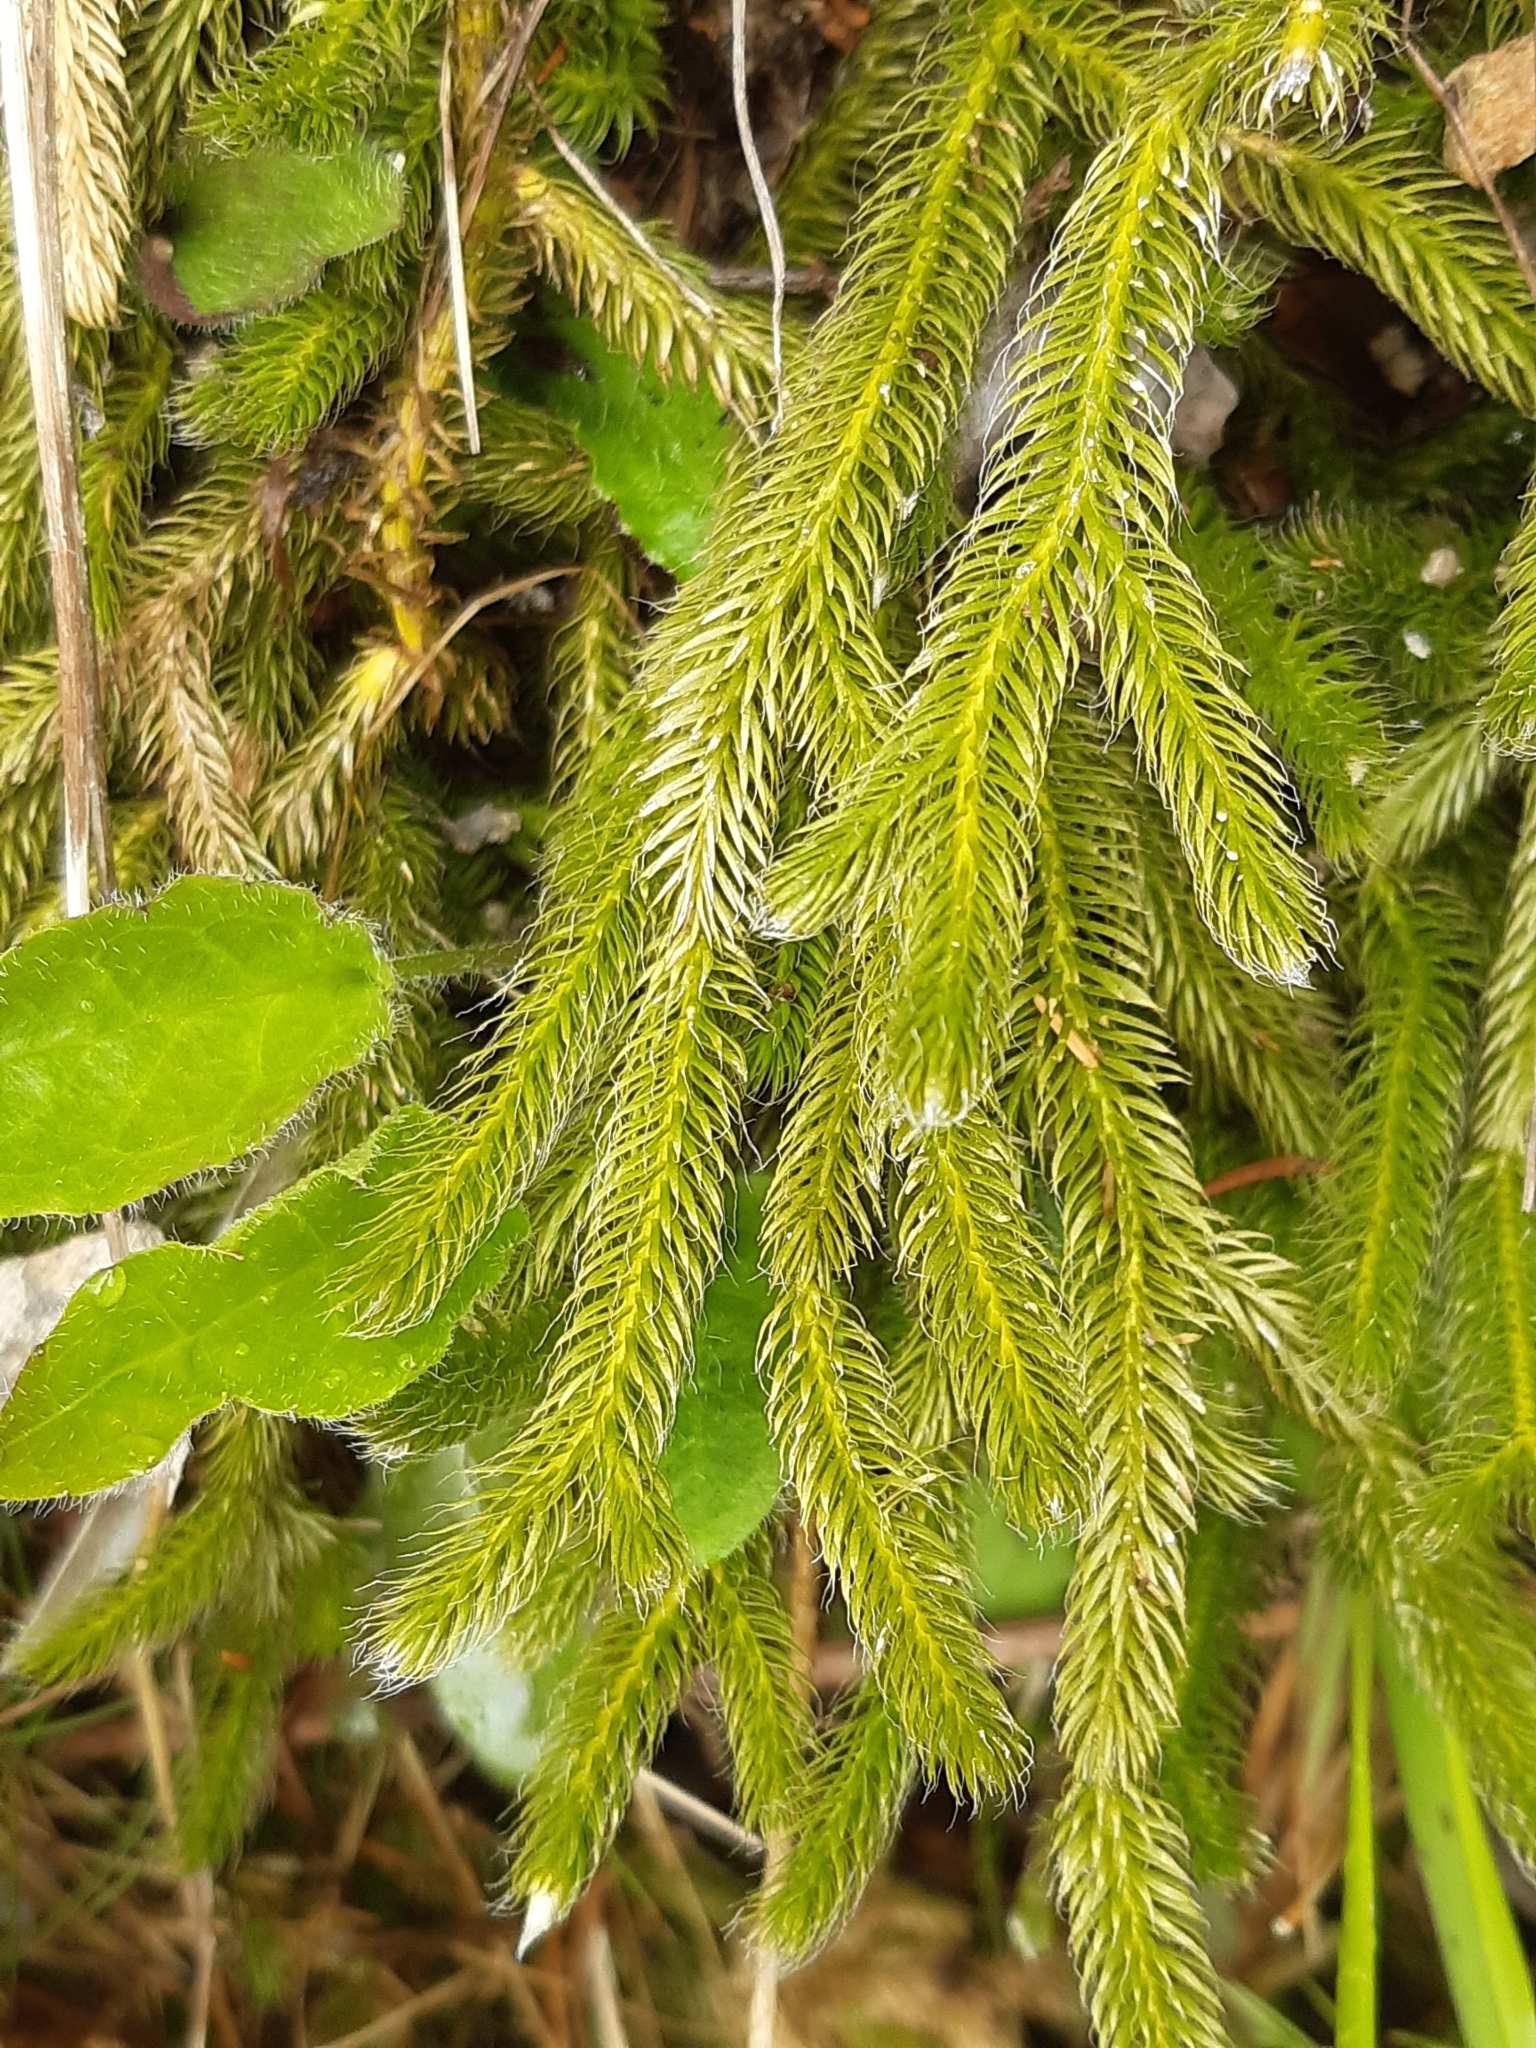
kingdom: Plantae
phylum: Tracheophyta
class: Lycopodiopsida
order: Lycopodiales
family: Lycopodiaceae
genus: Lycopodium
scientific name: Lycopodium clavatum
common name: Stag's-horn clubmoss
